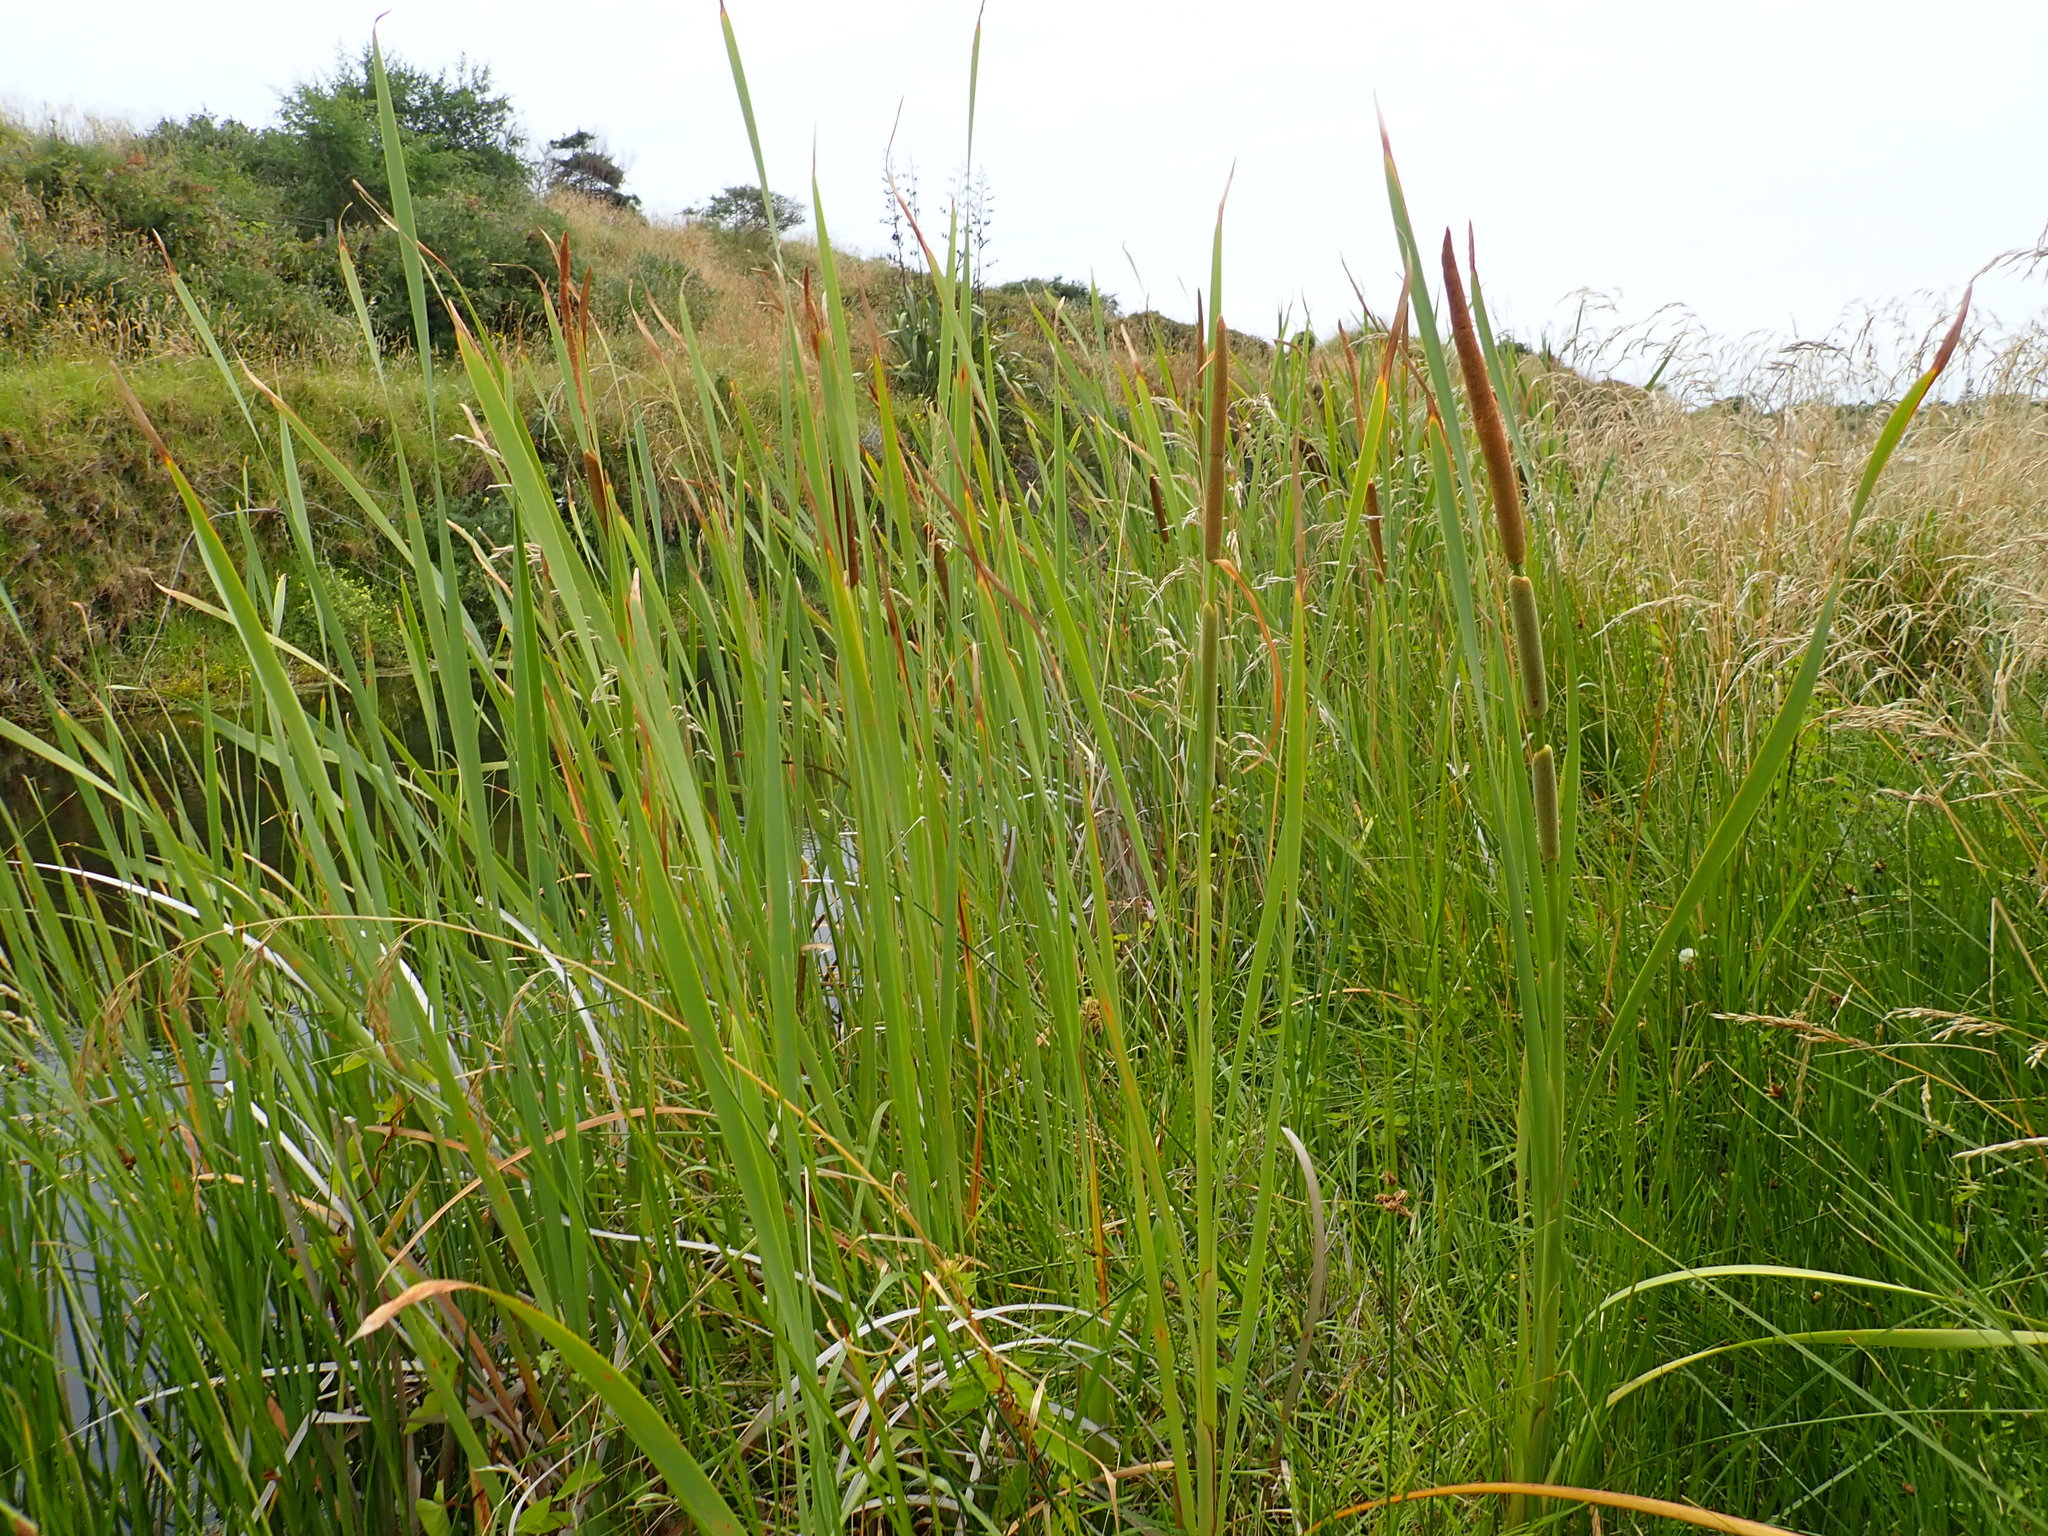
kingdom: Plantae
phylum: Tracheophyta
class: Liliopsida
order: Poales
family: Typhaceae
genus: Typha
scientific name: Typha orientalis
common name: Bullrush
